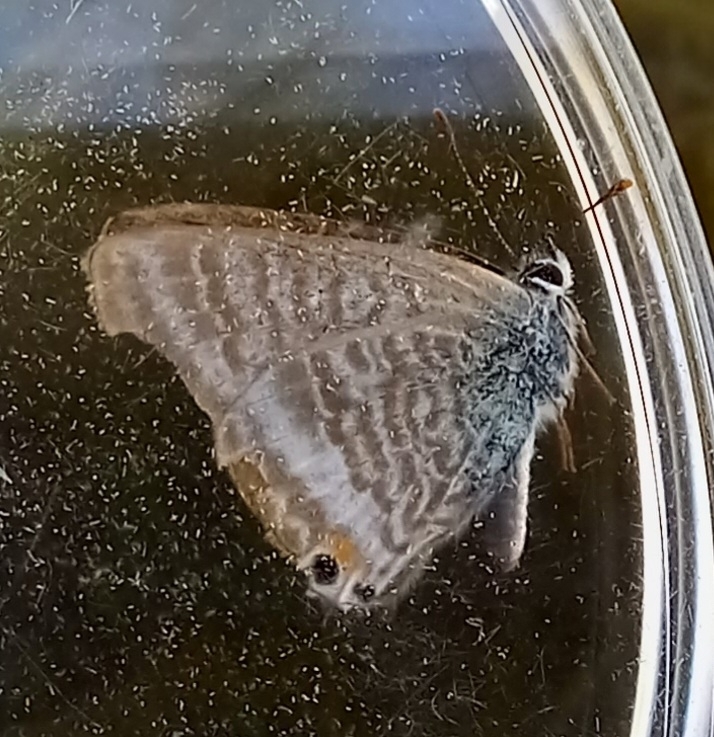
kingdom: Animalia
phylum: Arthropoda
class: Insecta
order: Lepidoptera
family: Lycaenidae
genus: Lampides
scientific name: Lampides boeticus
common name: Long-tailed blue
